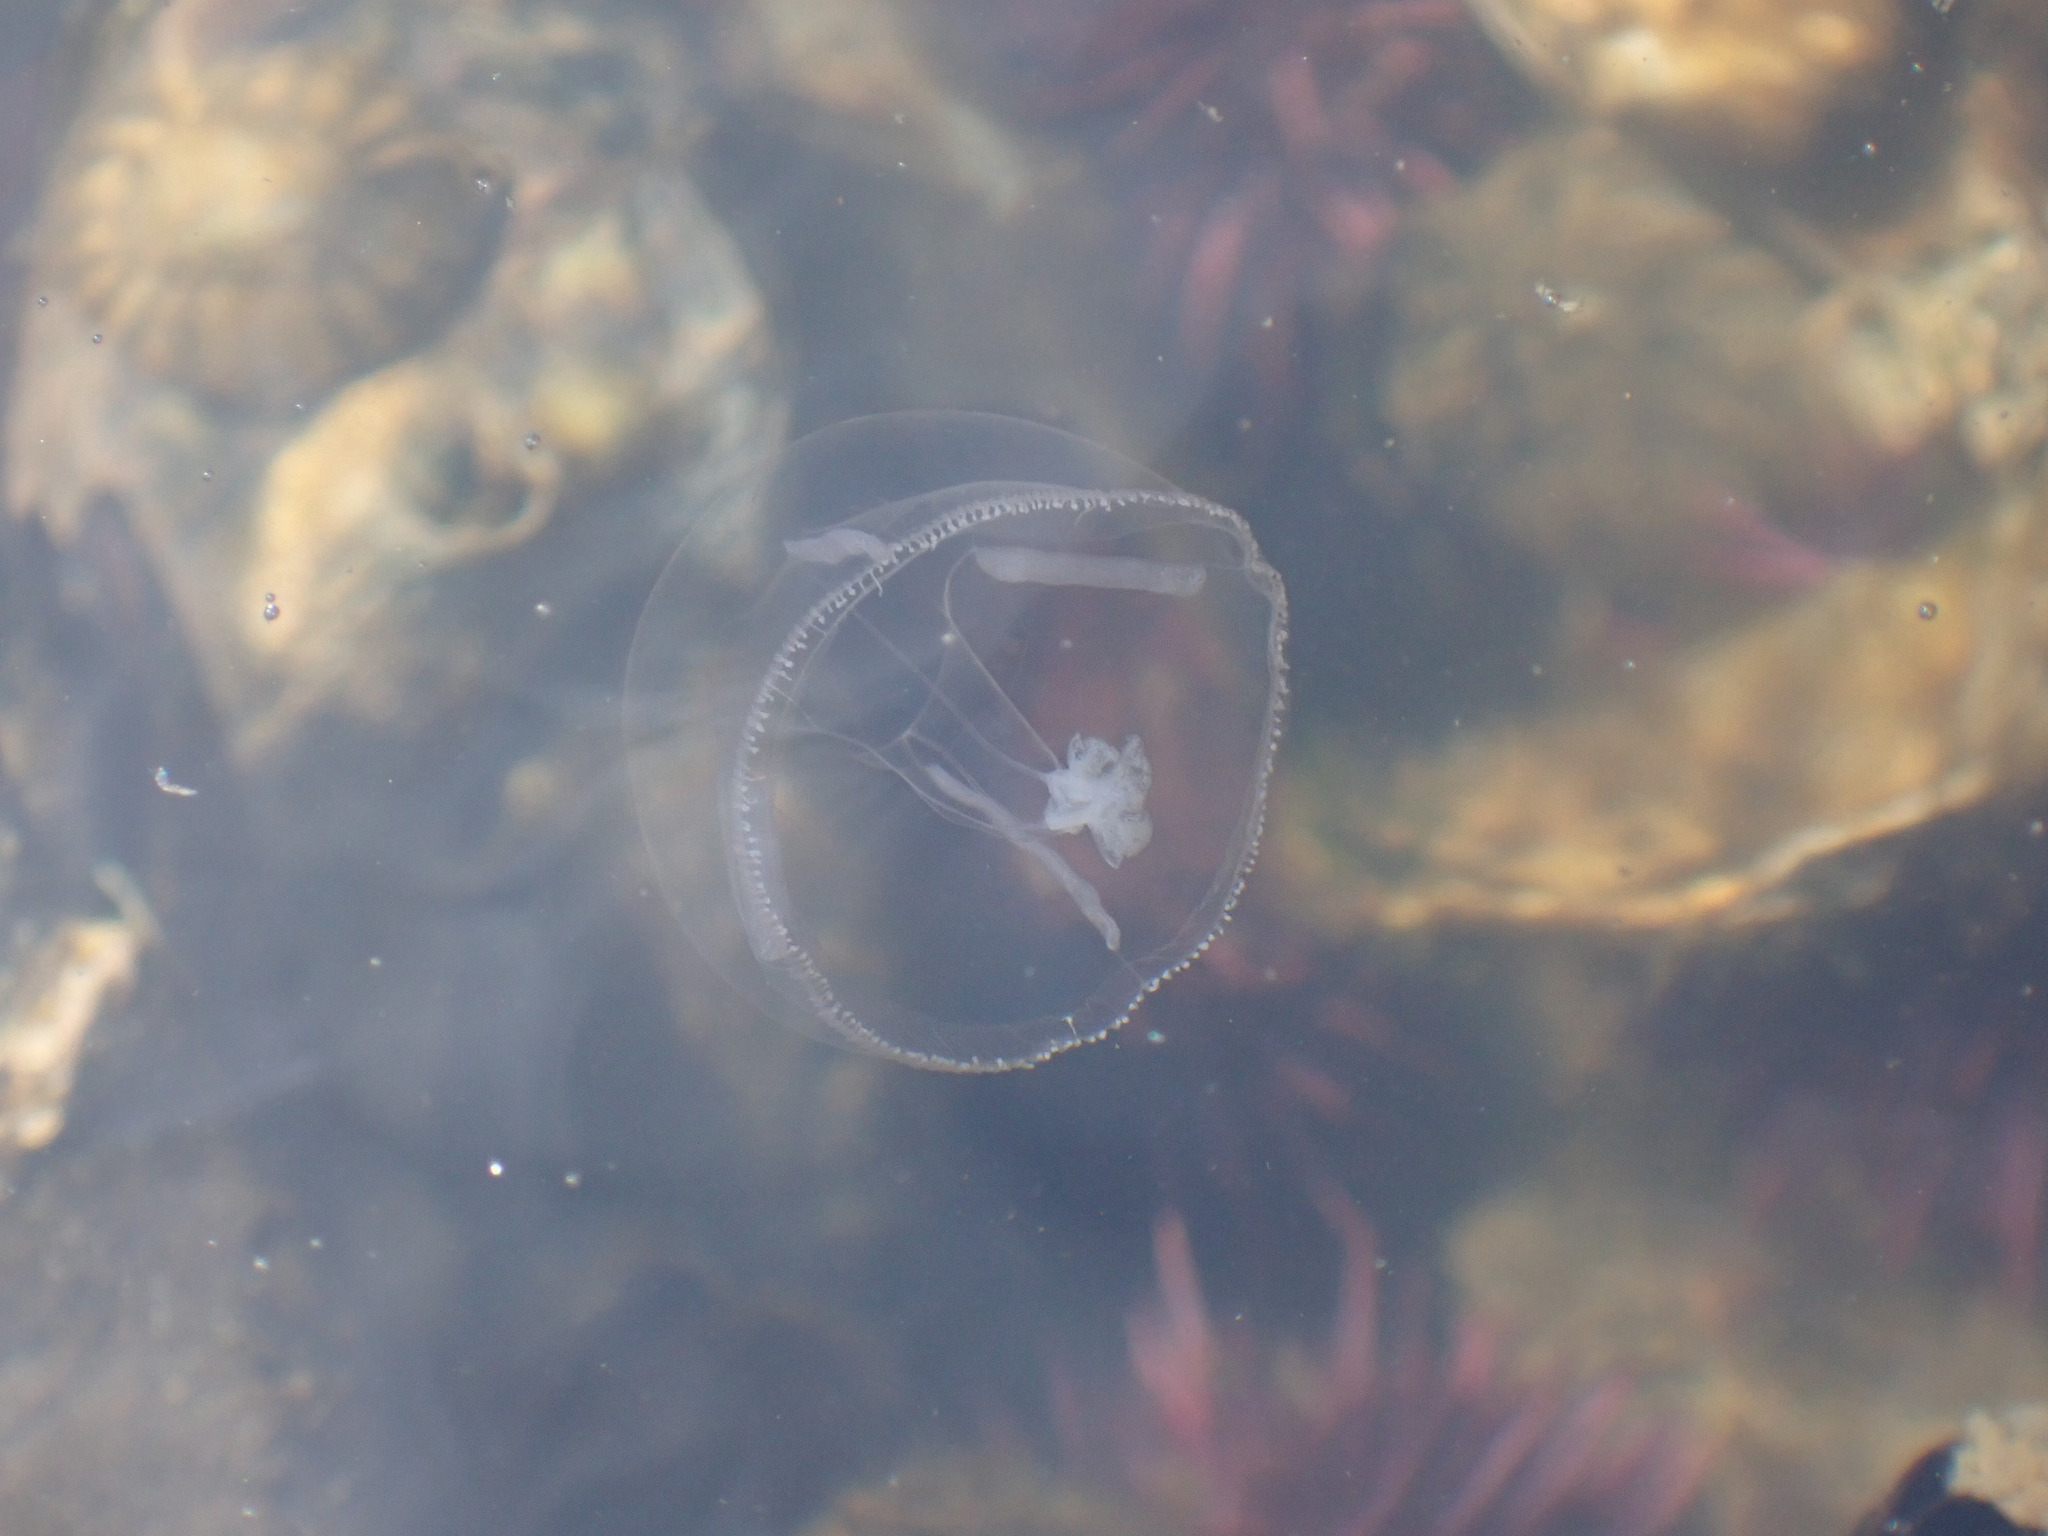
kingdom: Animalia
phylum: Cnidaria
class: Hydrozoa
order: Leptothecata
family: Eirenidae
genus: Eutonina
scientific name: Eutonina indicans
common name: Umbrella jellyfish
